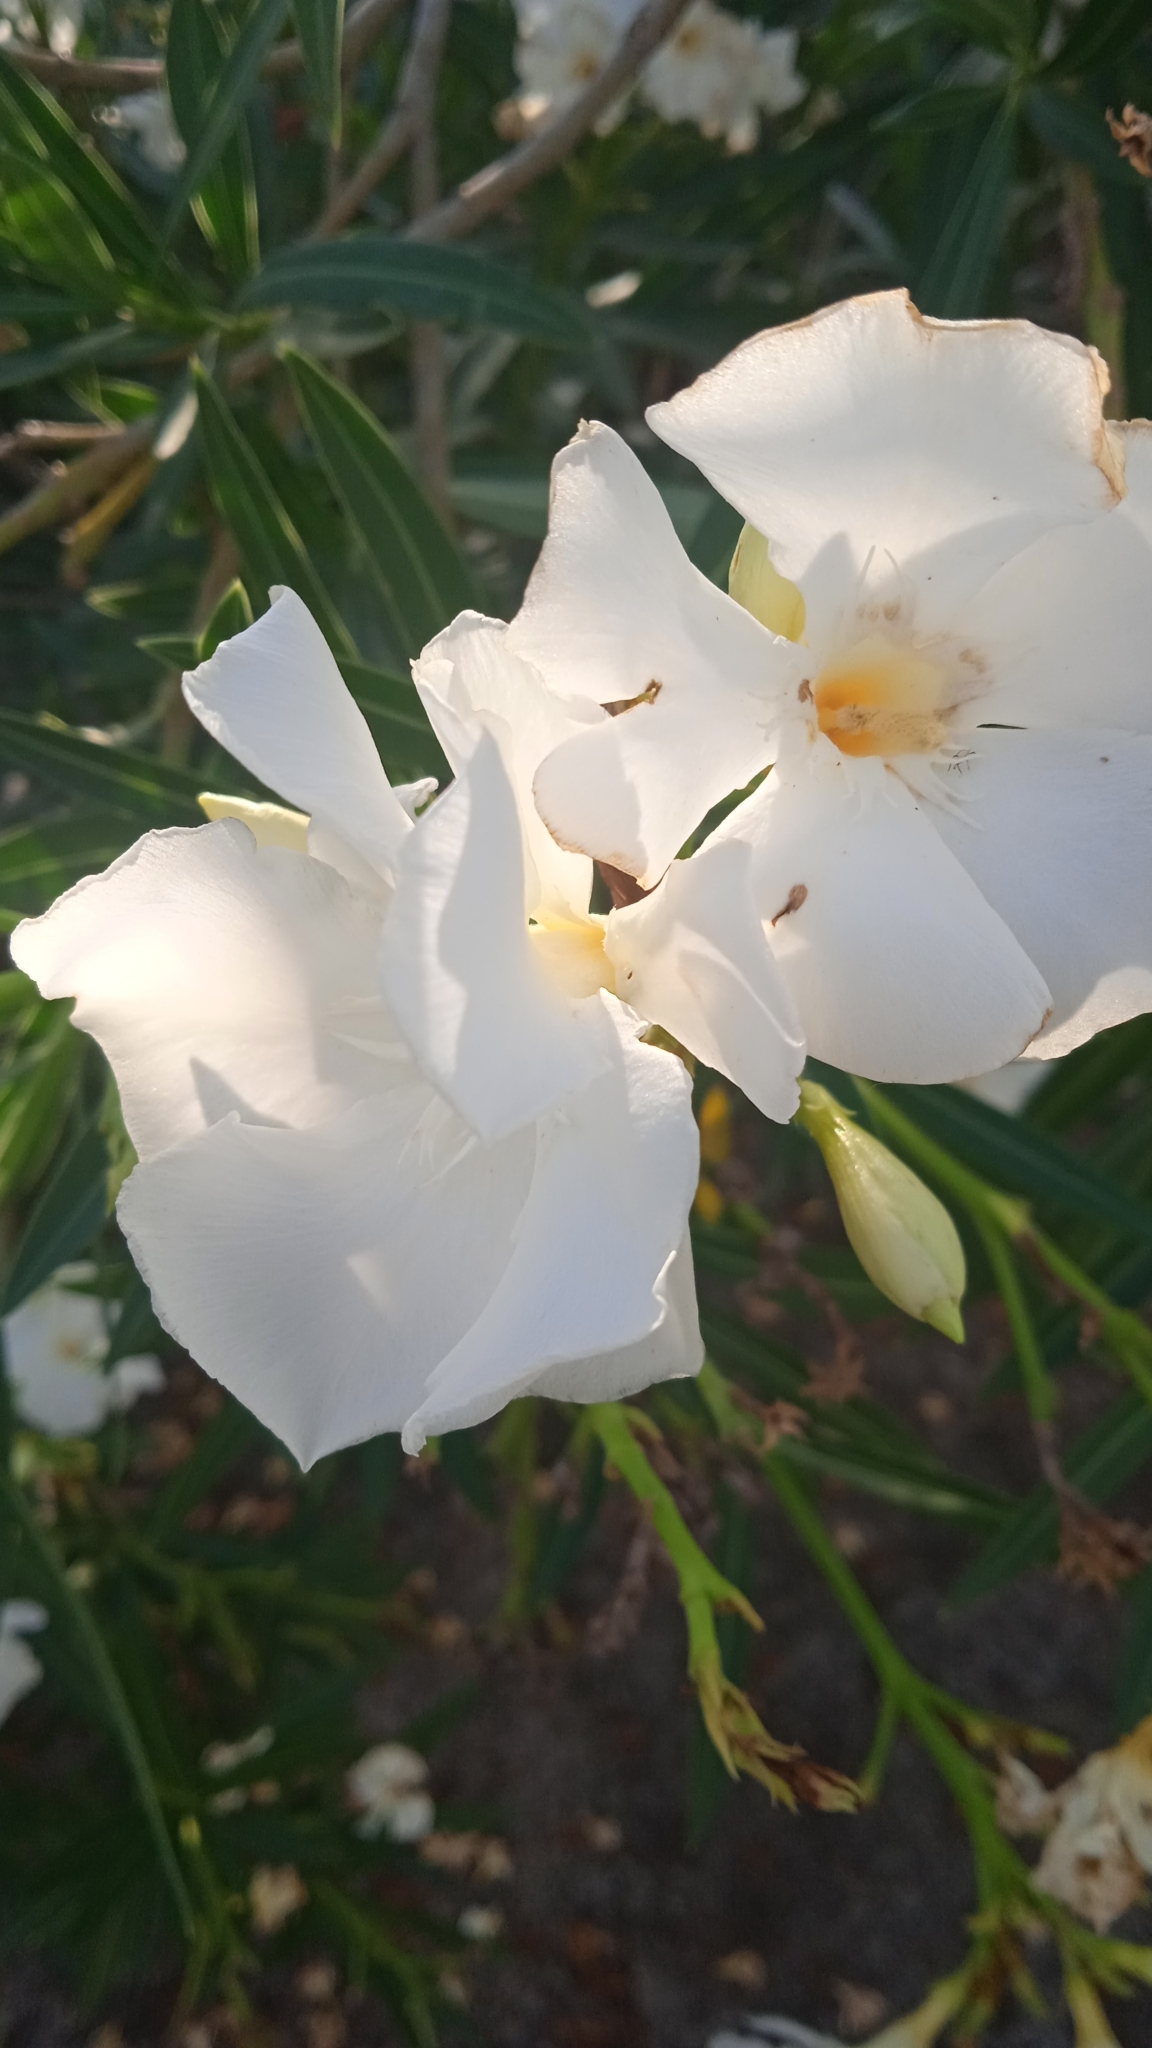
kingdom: Plantae
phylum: Tracheophyta
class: Magnoliopsida
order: Gentianales
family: Apocynaceae
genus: Nerium
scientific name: Nerium oleander
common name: Oleander
